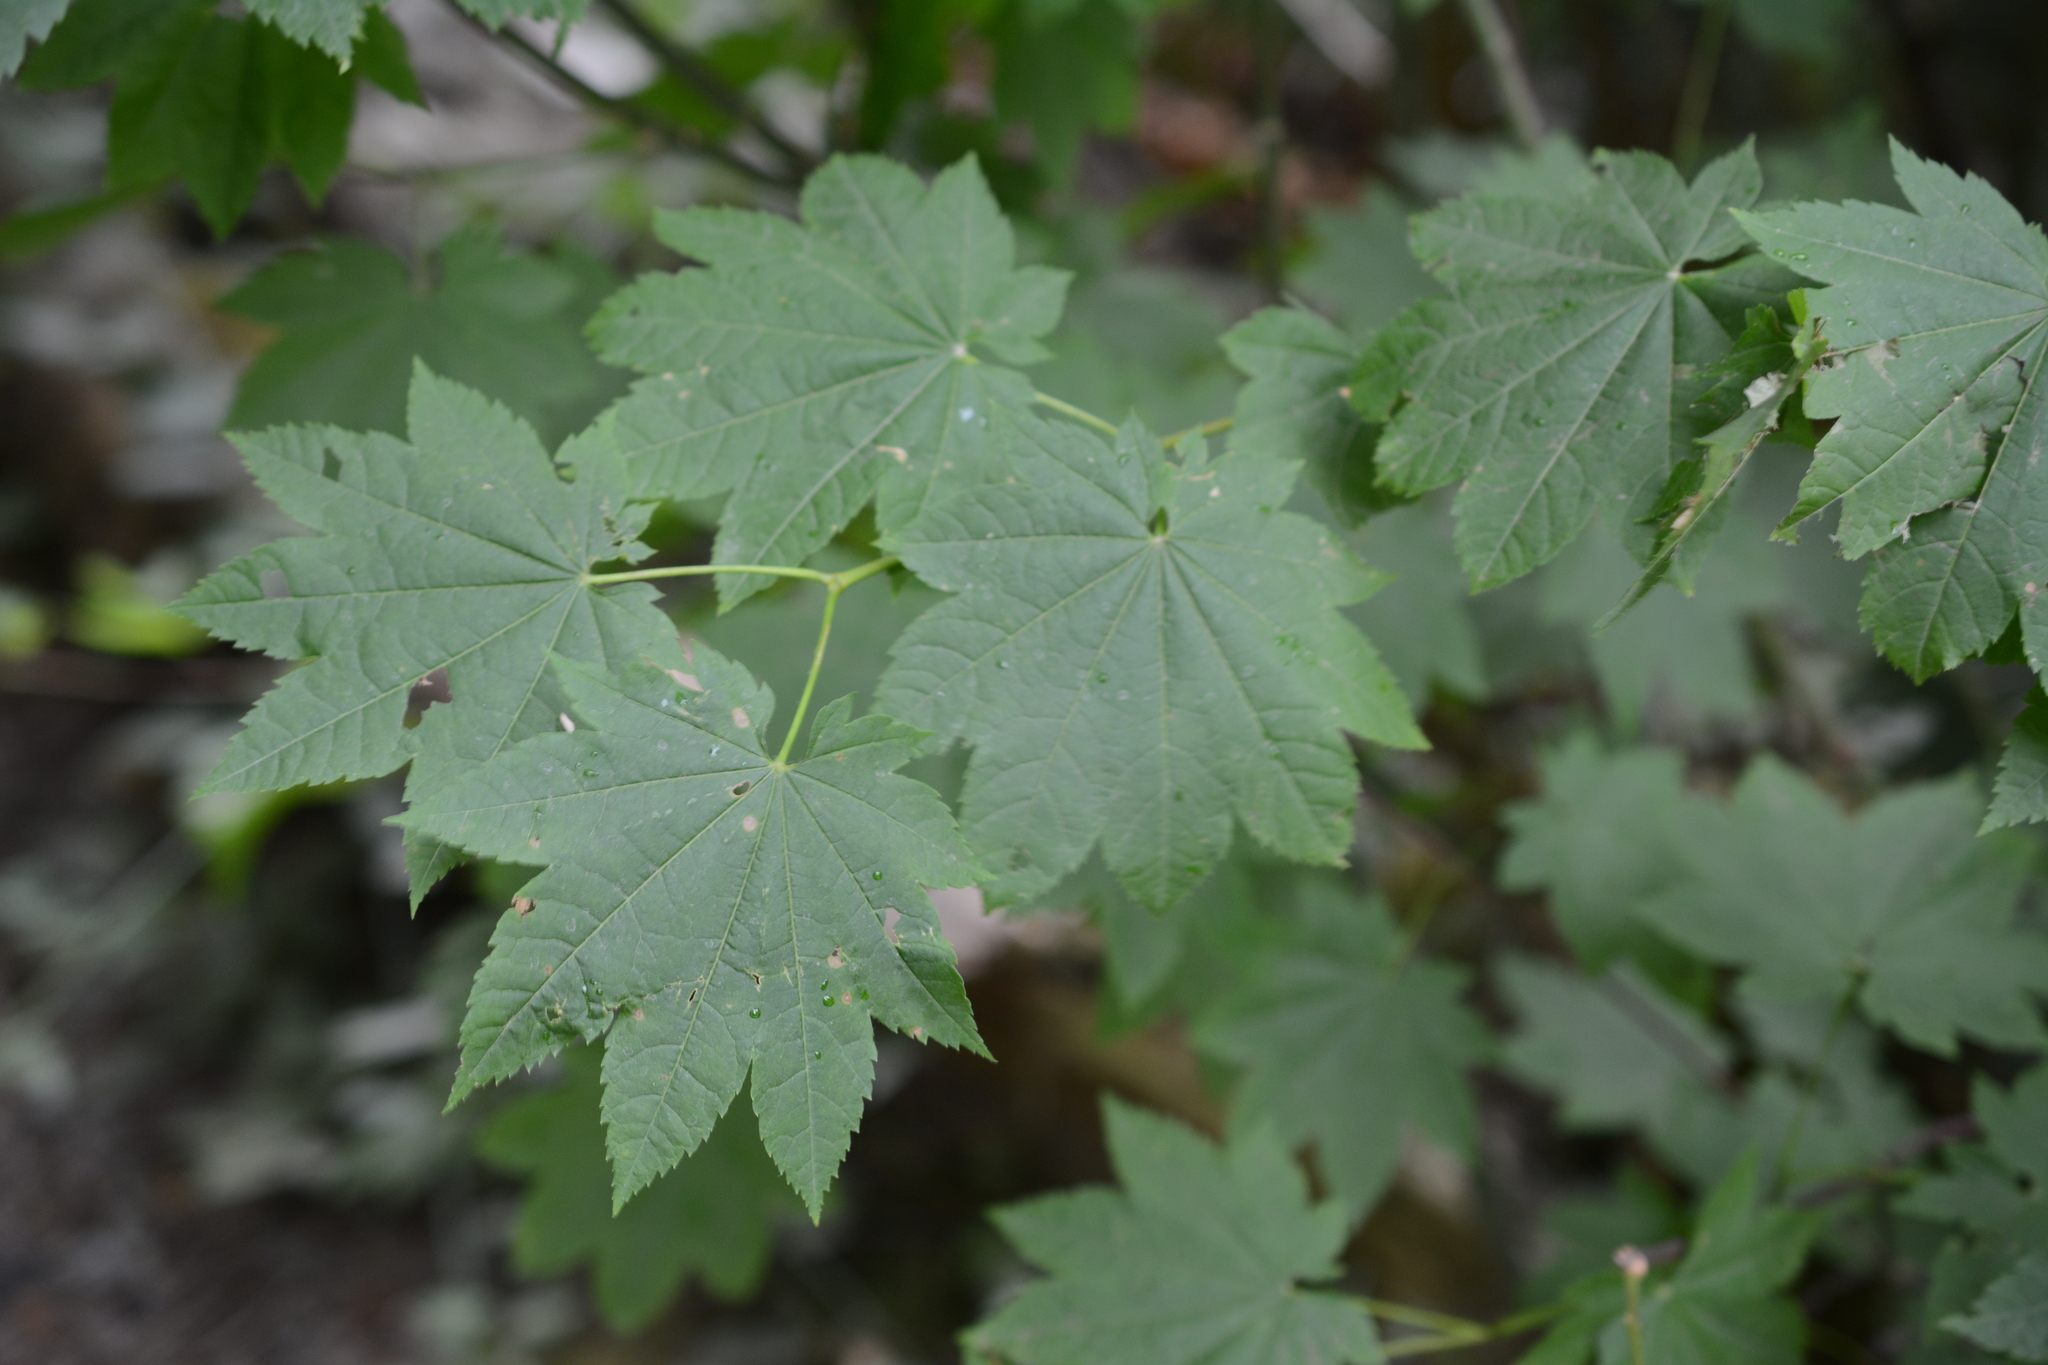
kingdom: Plantae
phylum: Tracheophyta
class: Magnoliopsida
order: Sapindales
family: Sapindaceae
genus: Acer
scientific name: Acer circinatum
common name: Vine maple
